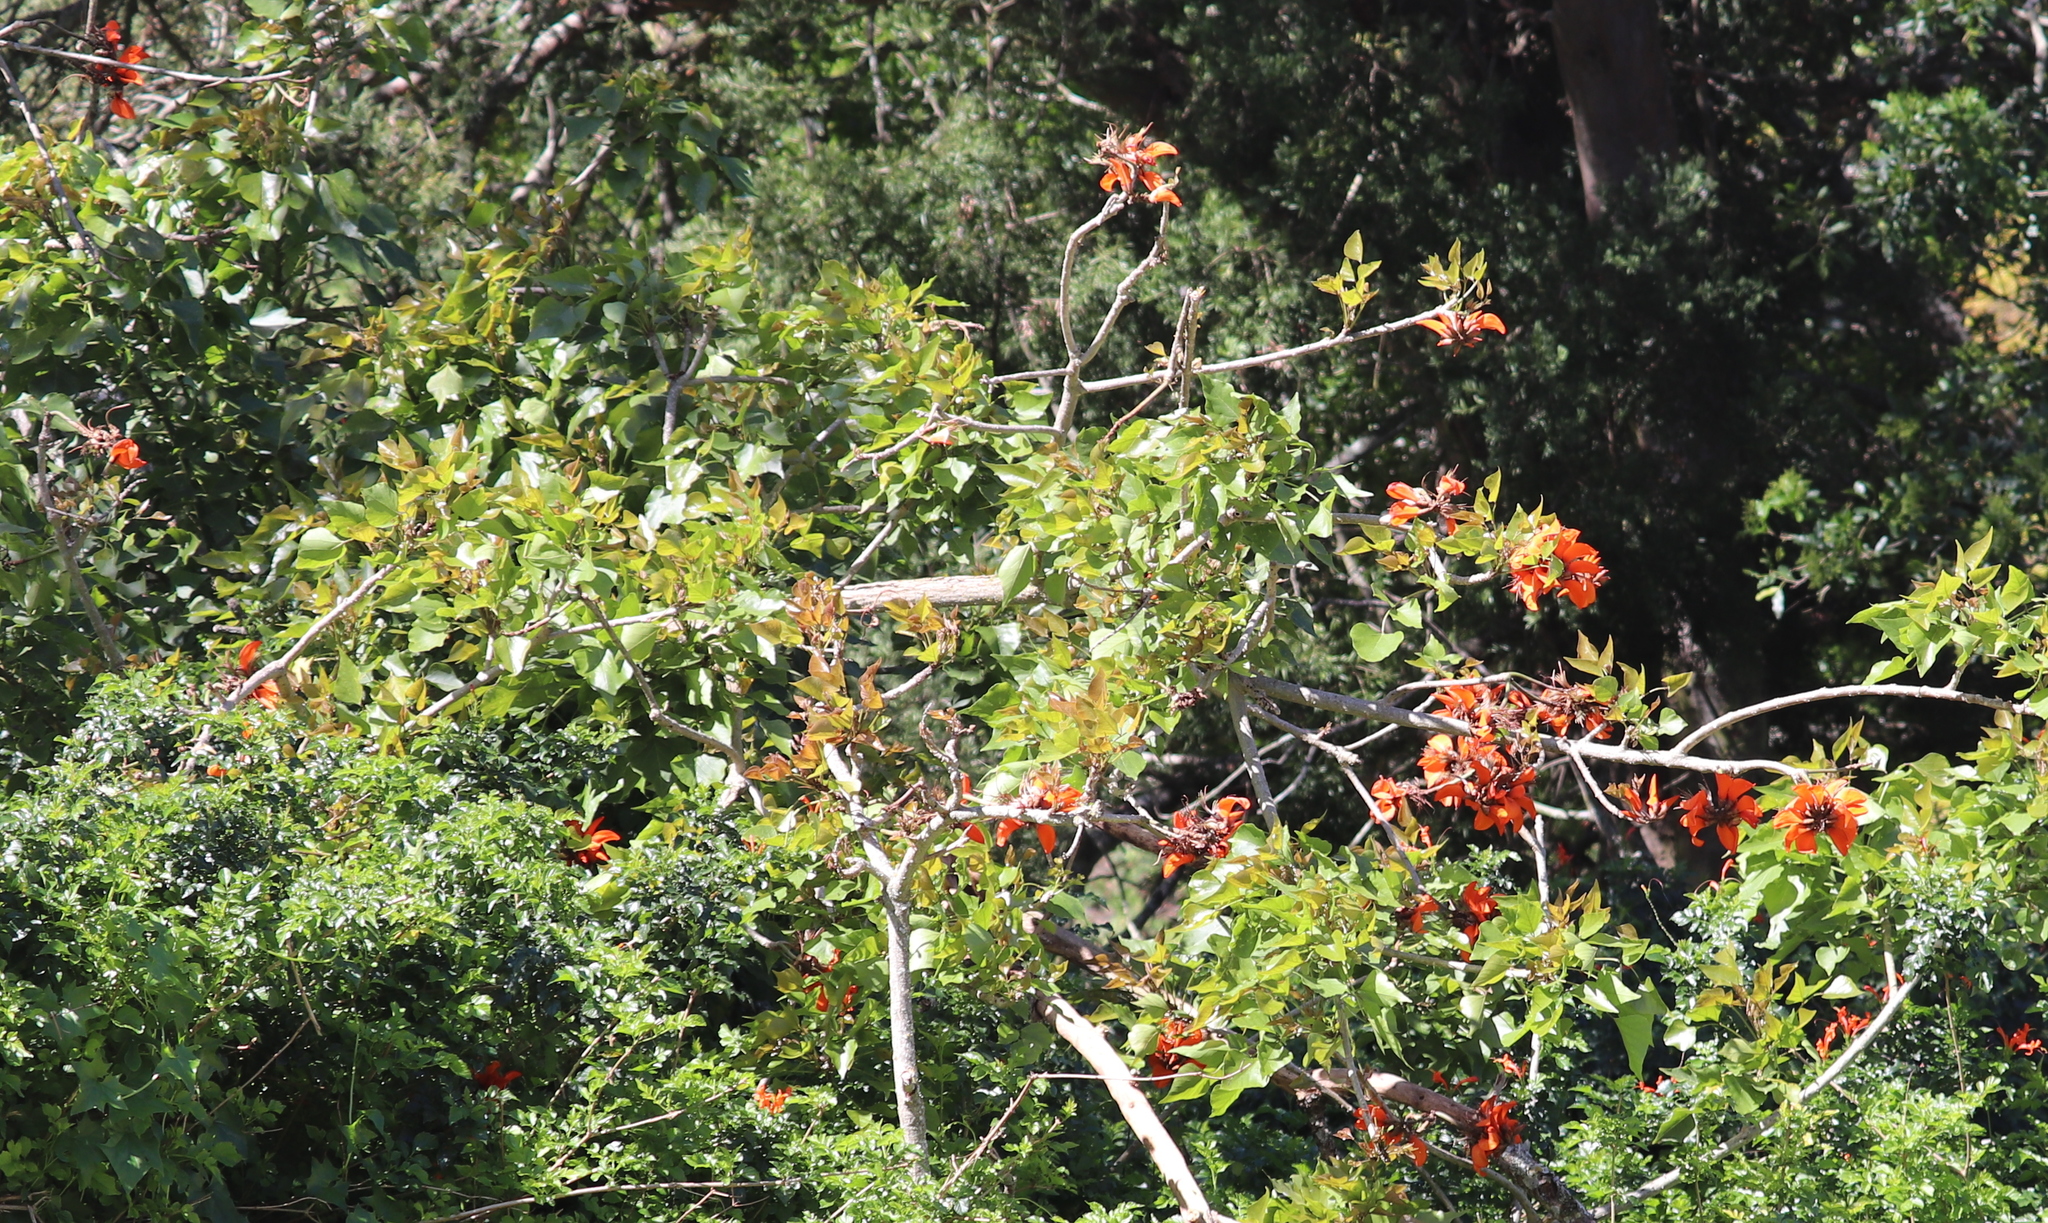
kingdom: Plantae
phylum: Tracheophyta
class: Magnoliopsida
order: Fabales
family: Fabaceae
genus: Erythrina
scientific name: Erythrina caffra
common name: Coast coral tree
